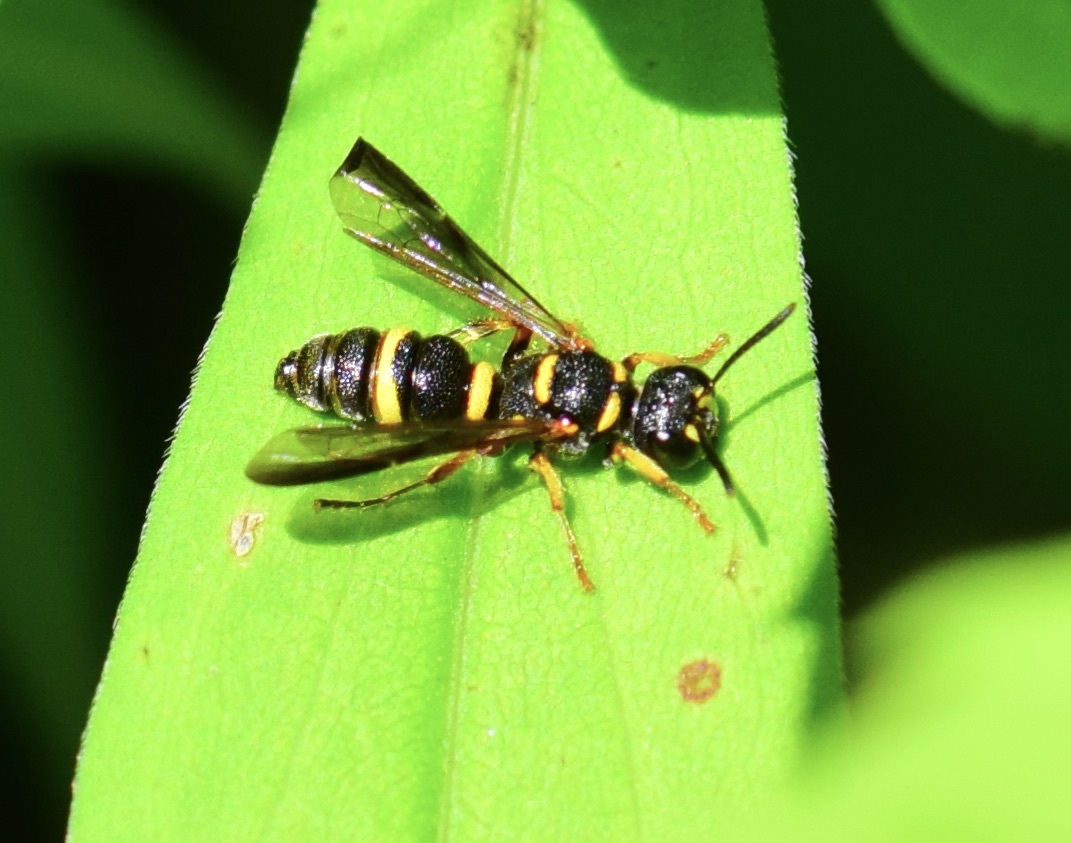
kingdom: Animalia
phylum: Arthropoda
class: Insecta
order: Hymenoptera
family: Crabronidae
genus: Cerceris
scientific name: Cerceris insolita
